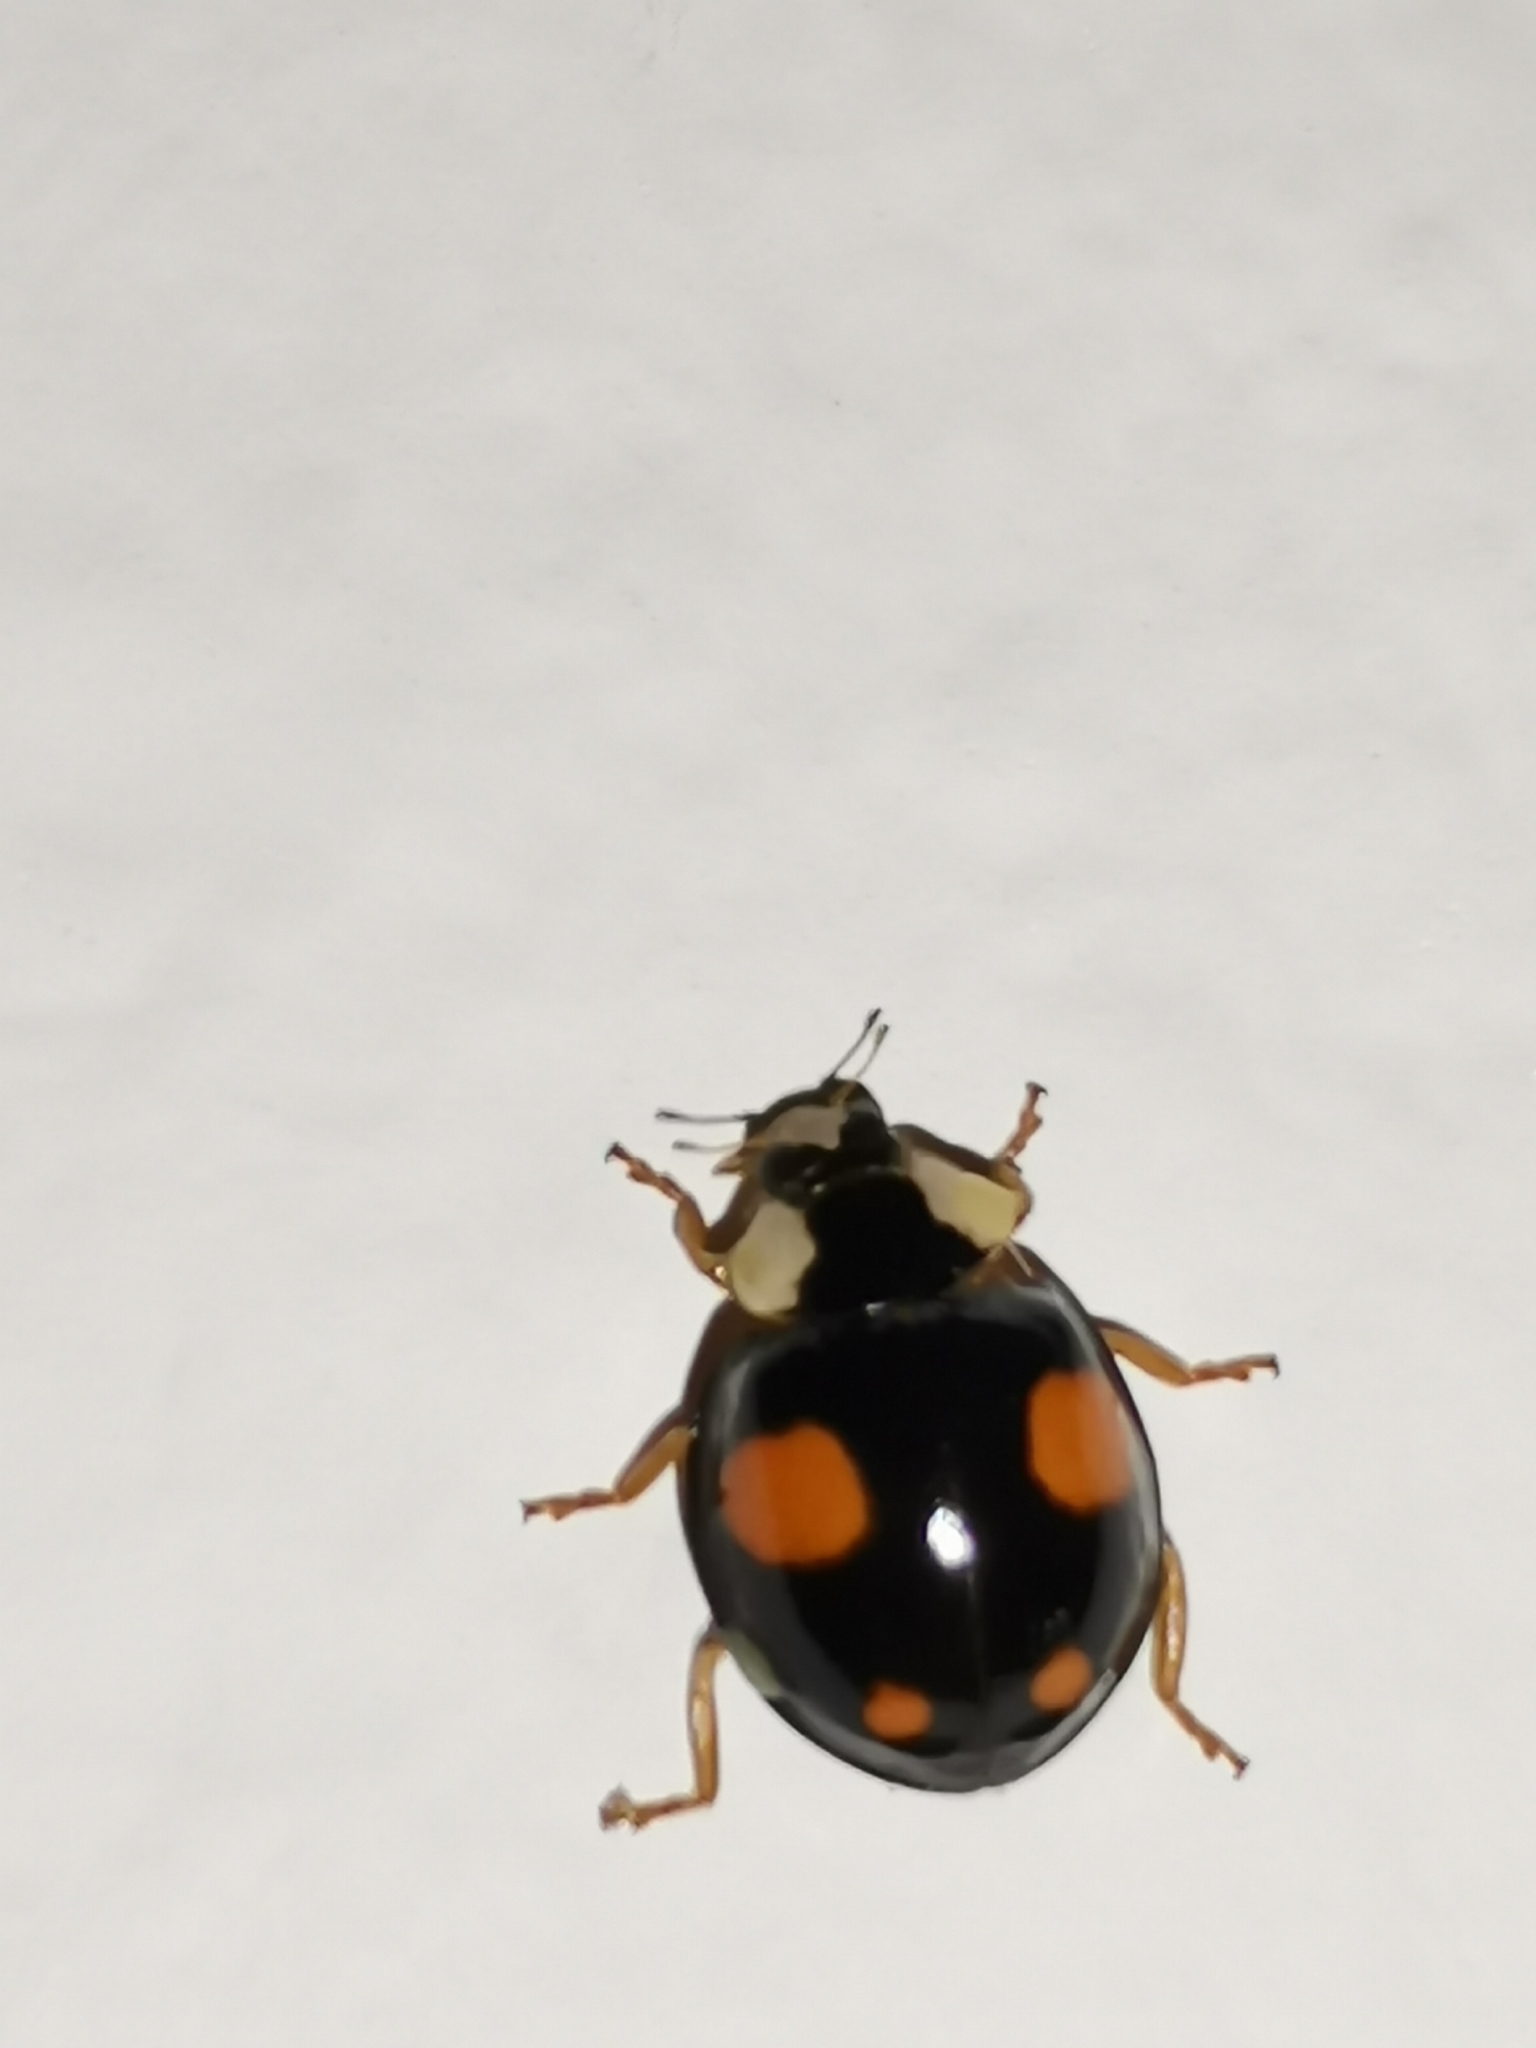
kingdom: Animalia
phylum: Arthropoda
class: Insecta
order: Coleoptera
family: Coccinellidae
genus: Harmonia
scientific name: Harmonia axyridis
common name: Harlequin ladybird
